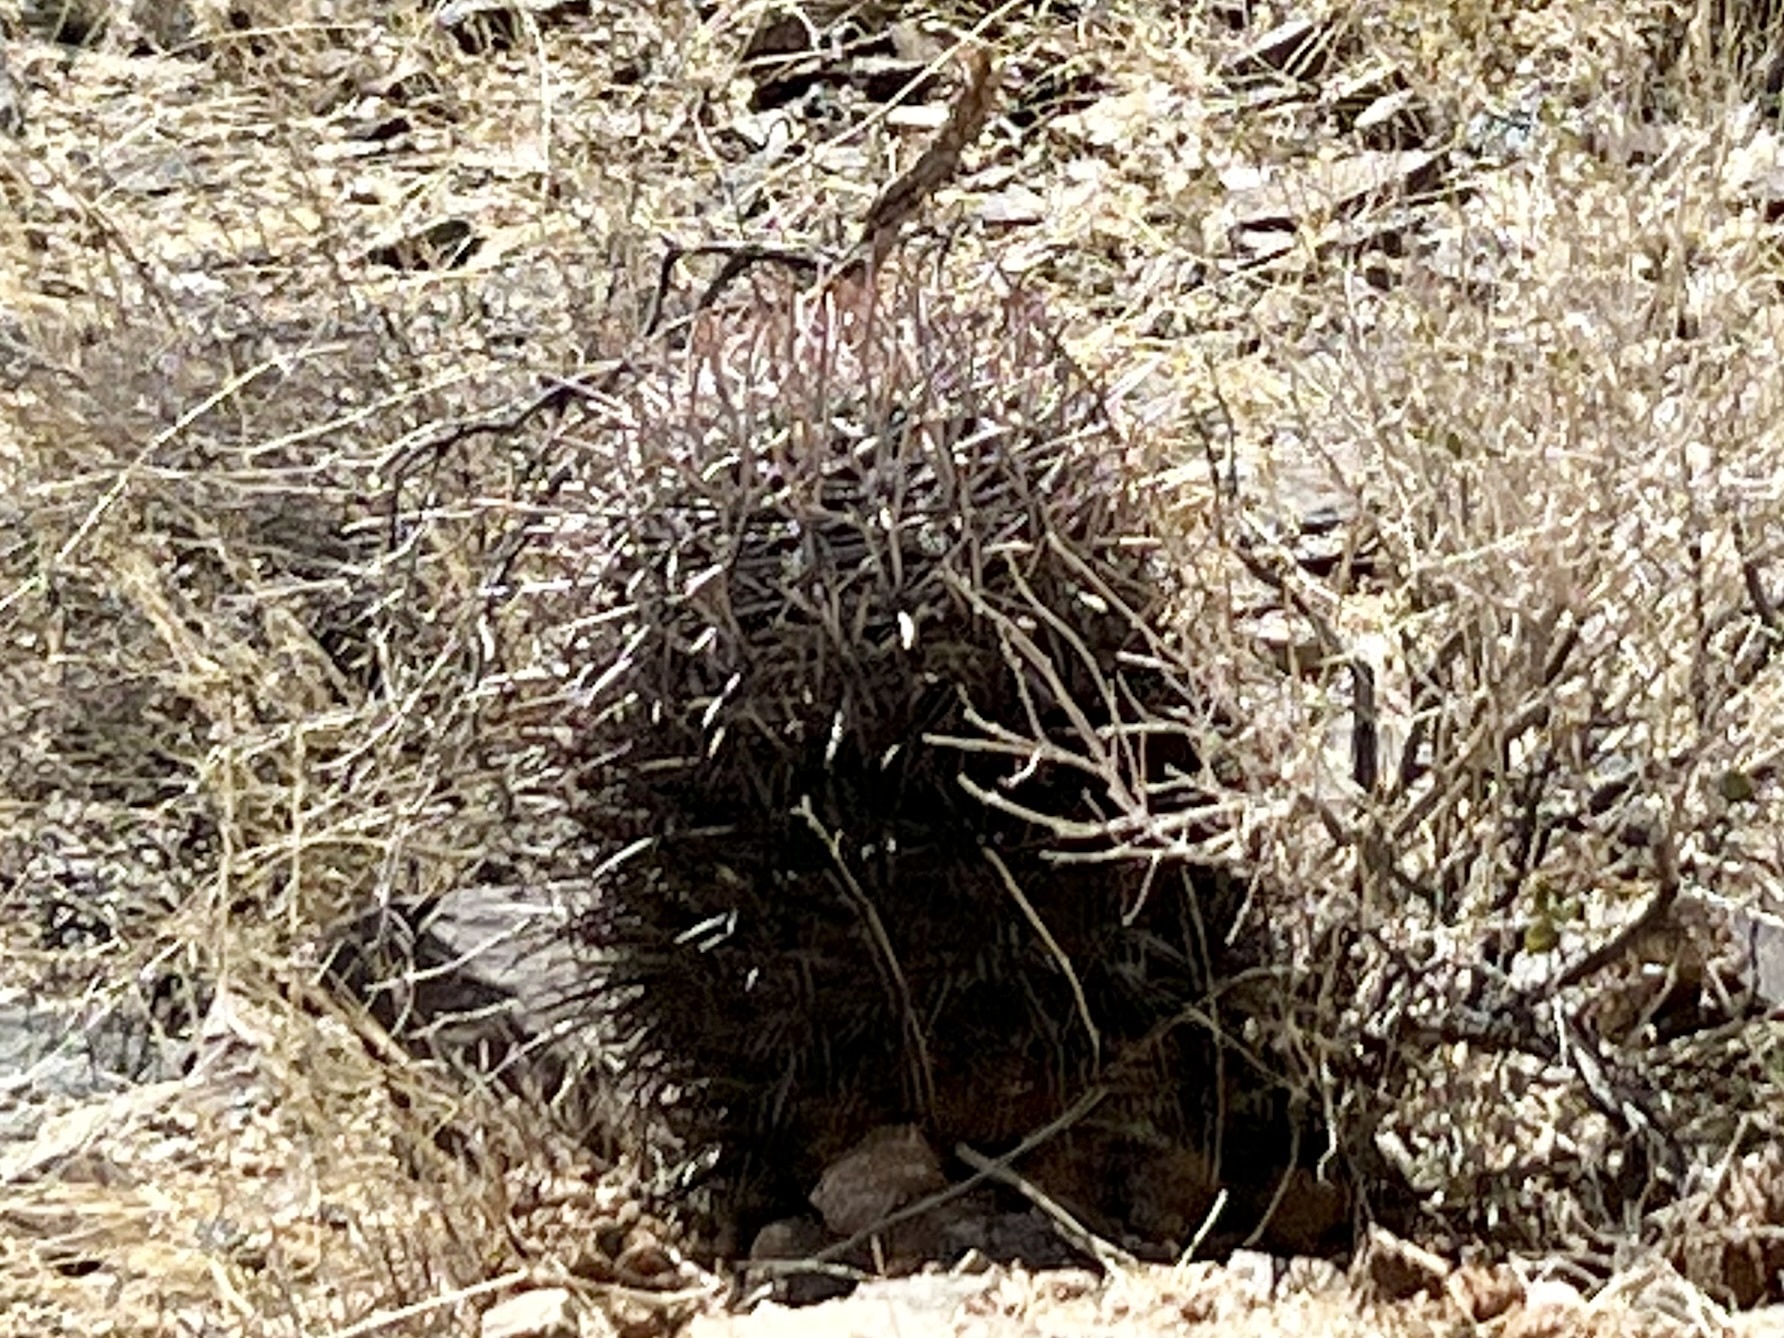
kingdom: Plantae
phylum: Tracheophyta
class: Magnoliopsida
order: Caryophyllales
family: Cactaceae
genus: Echinocactus
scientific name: Echinocactus polycephalus
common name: Cottontop cactus
